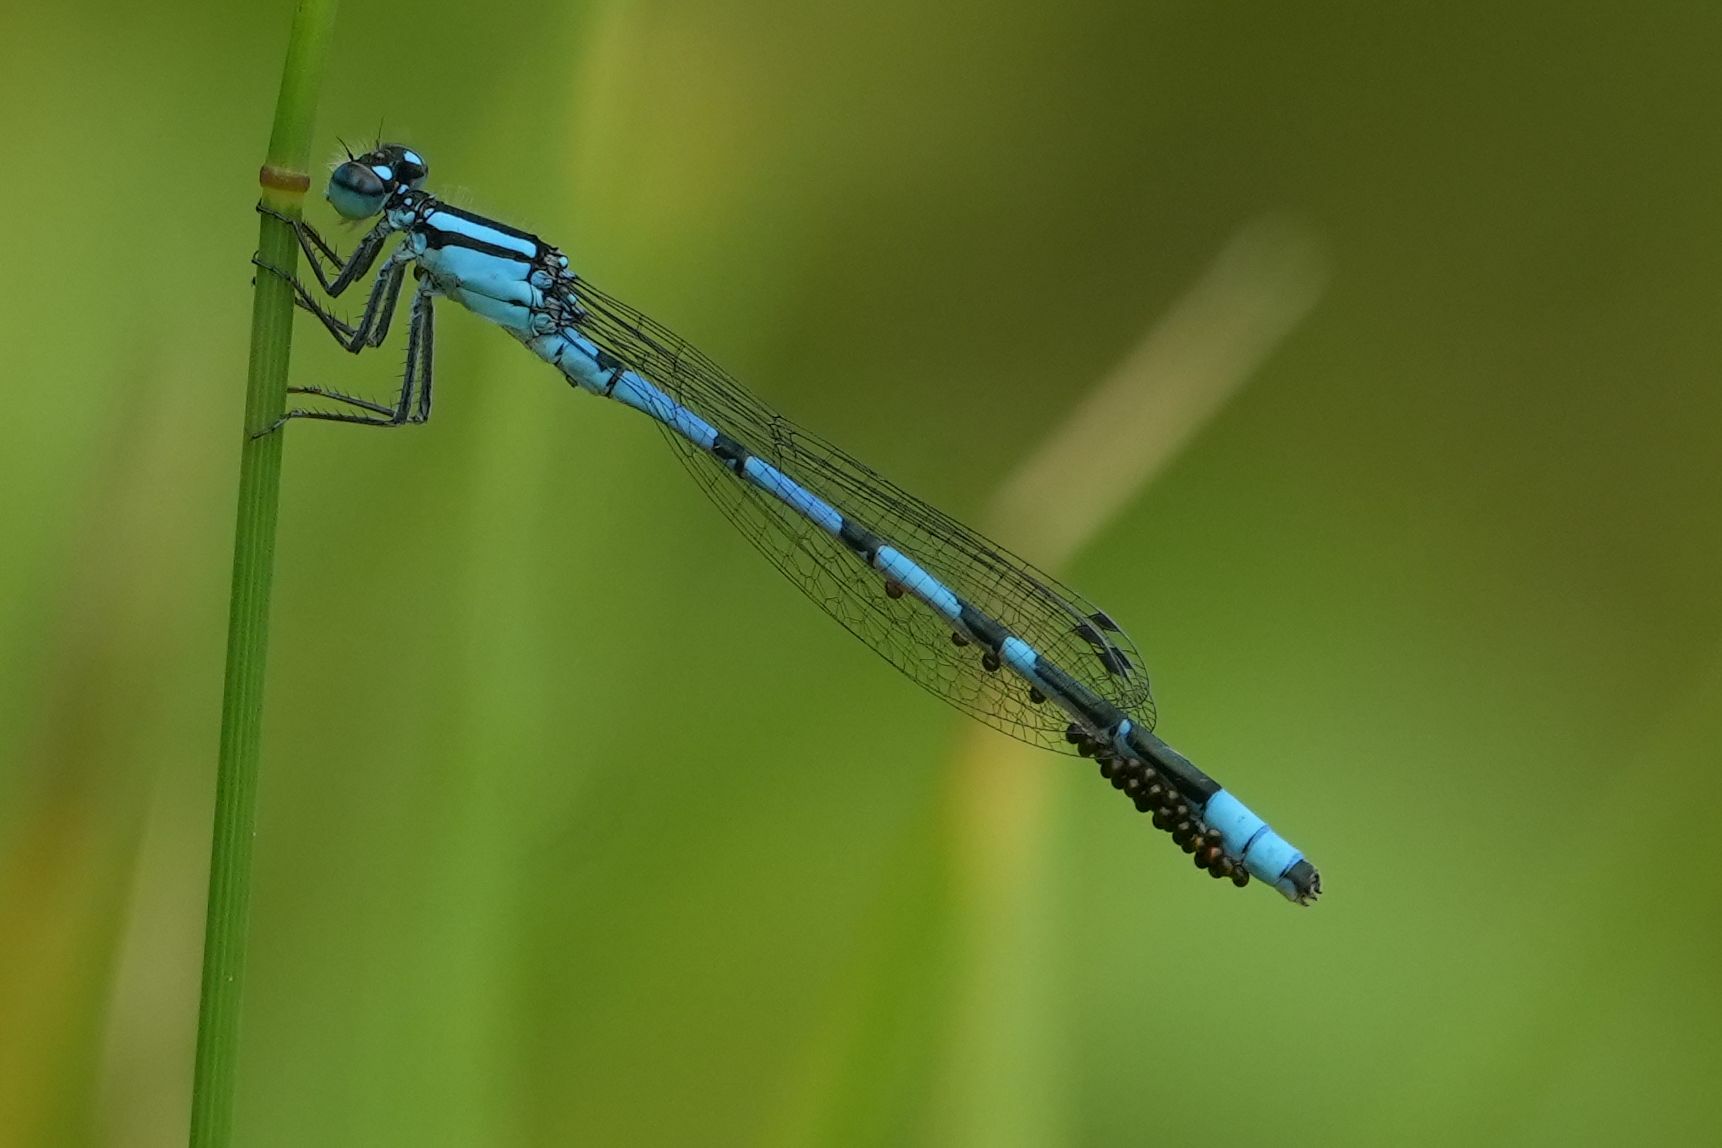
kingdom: Animalia
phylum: Arthropoda
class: Insecta
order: Odonata
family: Coenagrionidae
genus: Enallagma
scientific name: Enallagma hageni
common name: Hagen's bluet
